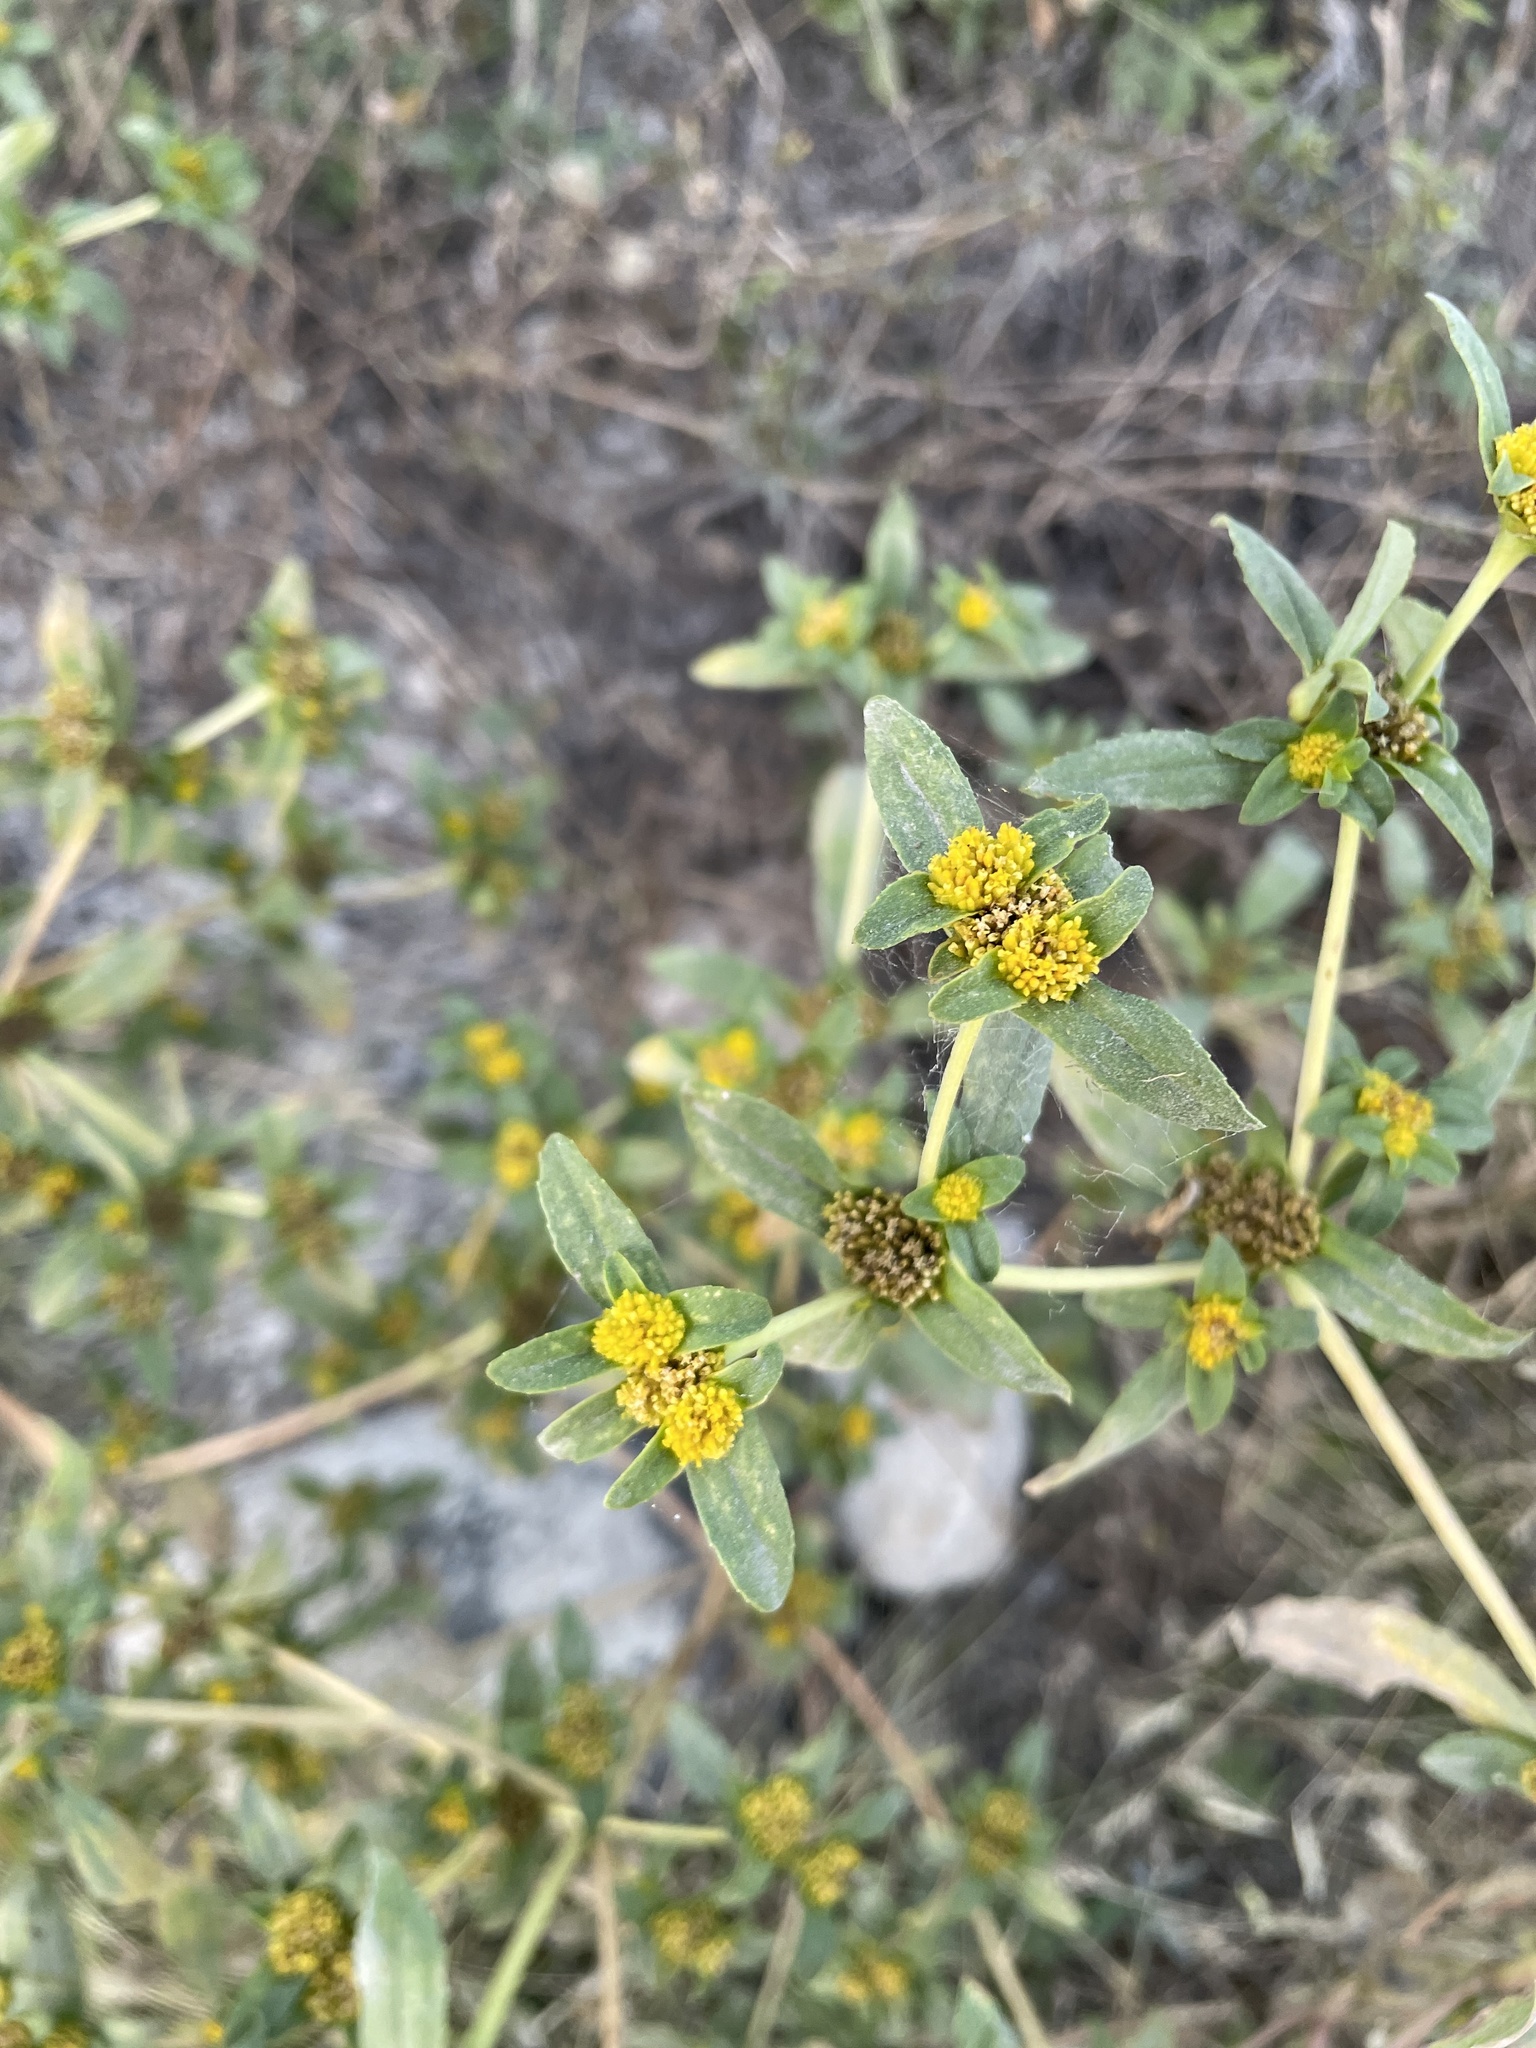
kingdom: Plantae
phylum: Tracheophyta
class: Magnoliopsida
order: Asterales
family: Asteraceae
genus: Flaveria
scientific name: Flaveria trinervia
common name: Clustered yellowtops
